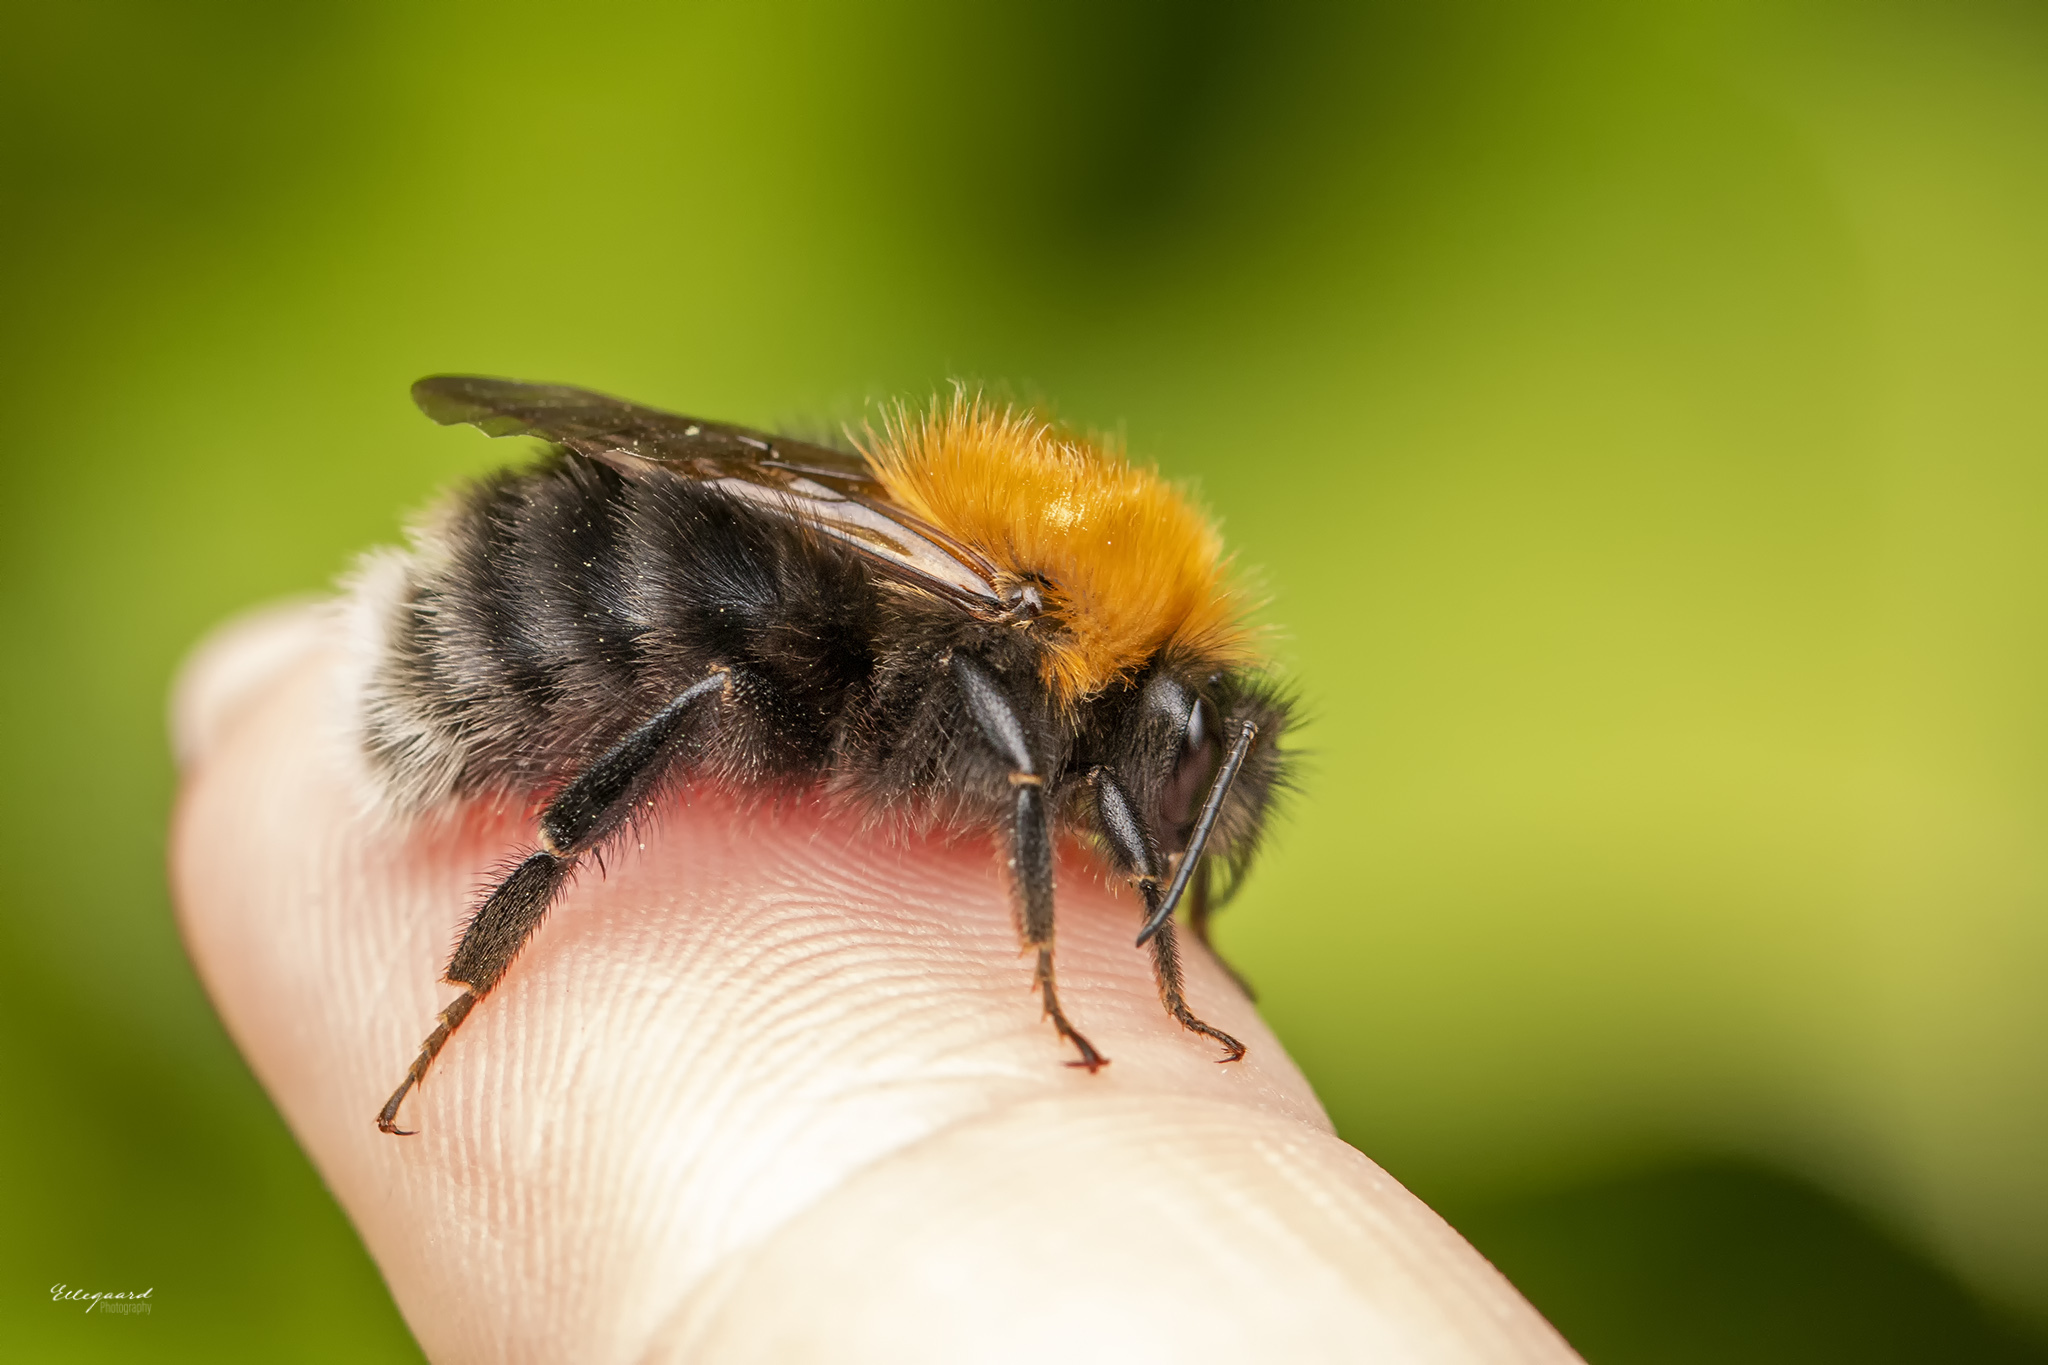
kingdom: Animalia
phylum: Arthropoda
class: Insecta
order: Hymenoptera
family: Apidae
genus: Bombus
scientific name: Bombus hypnorum
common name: New garden bumblebee
